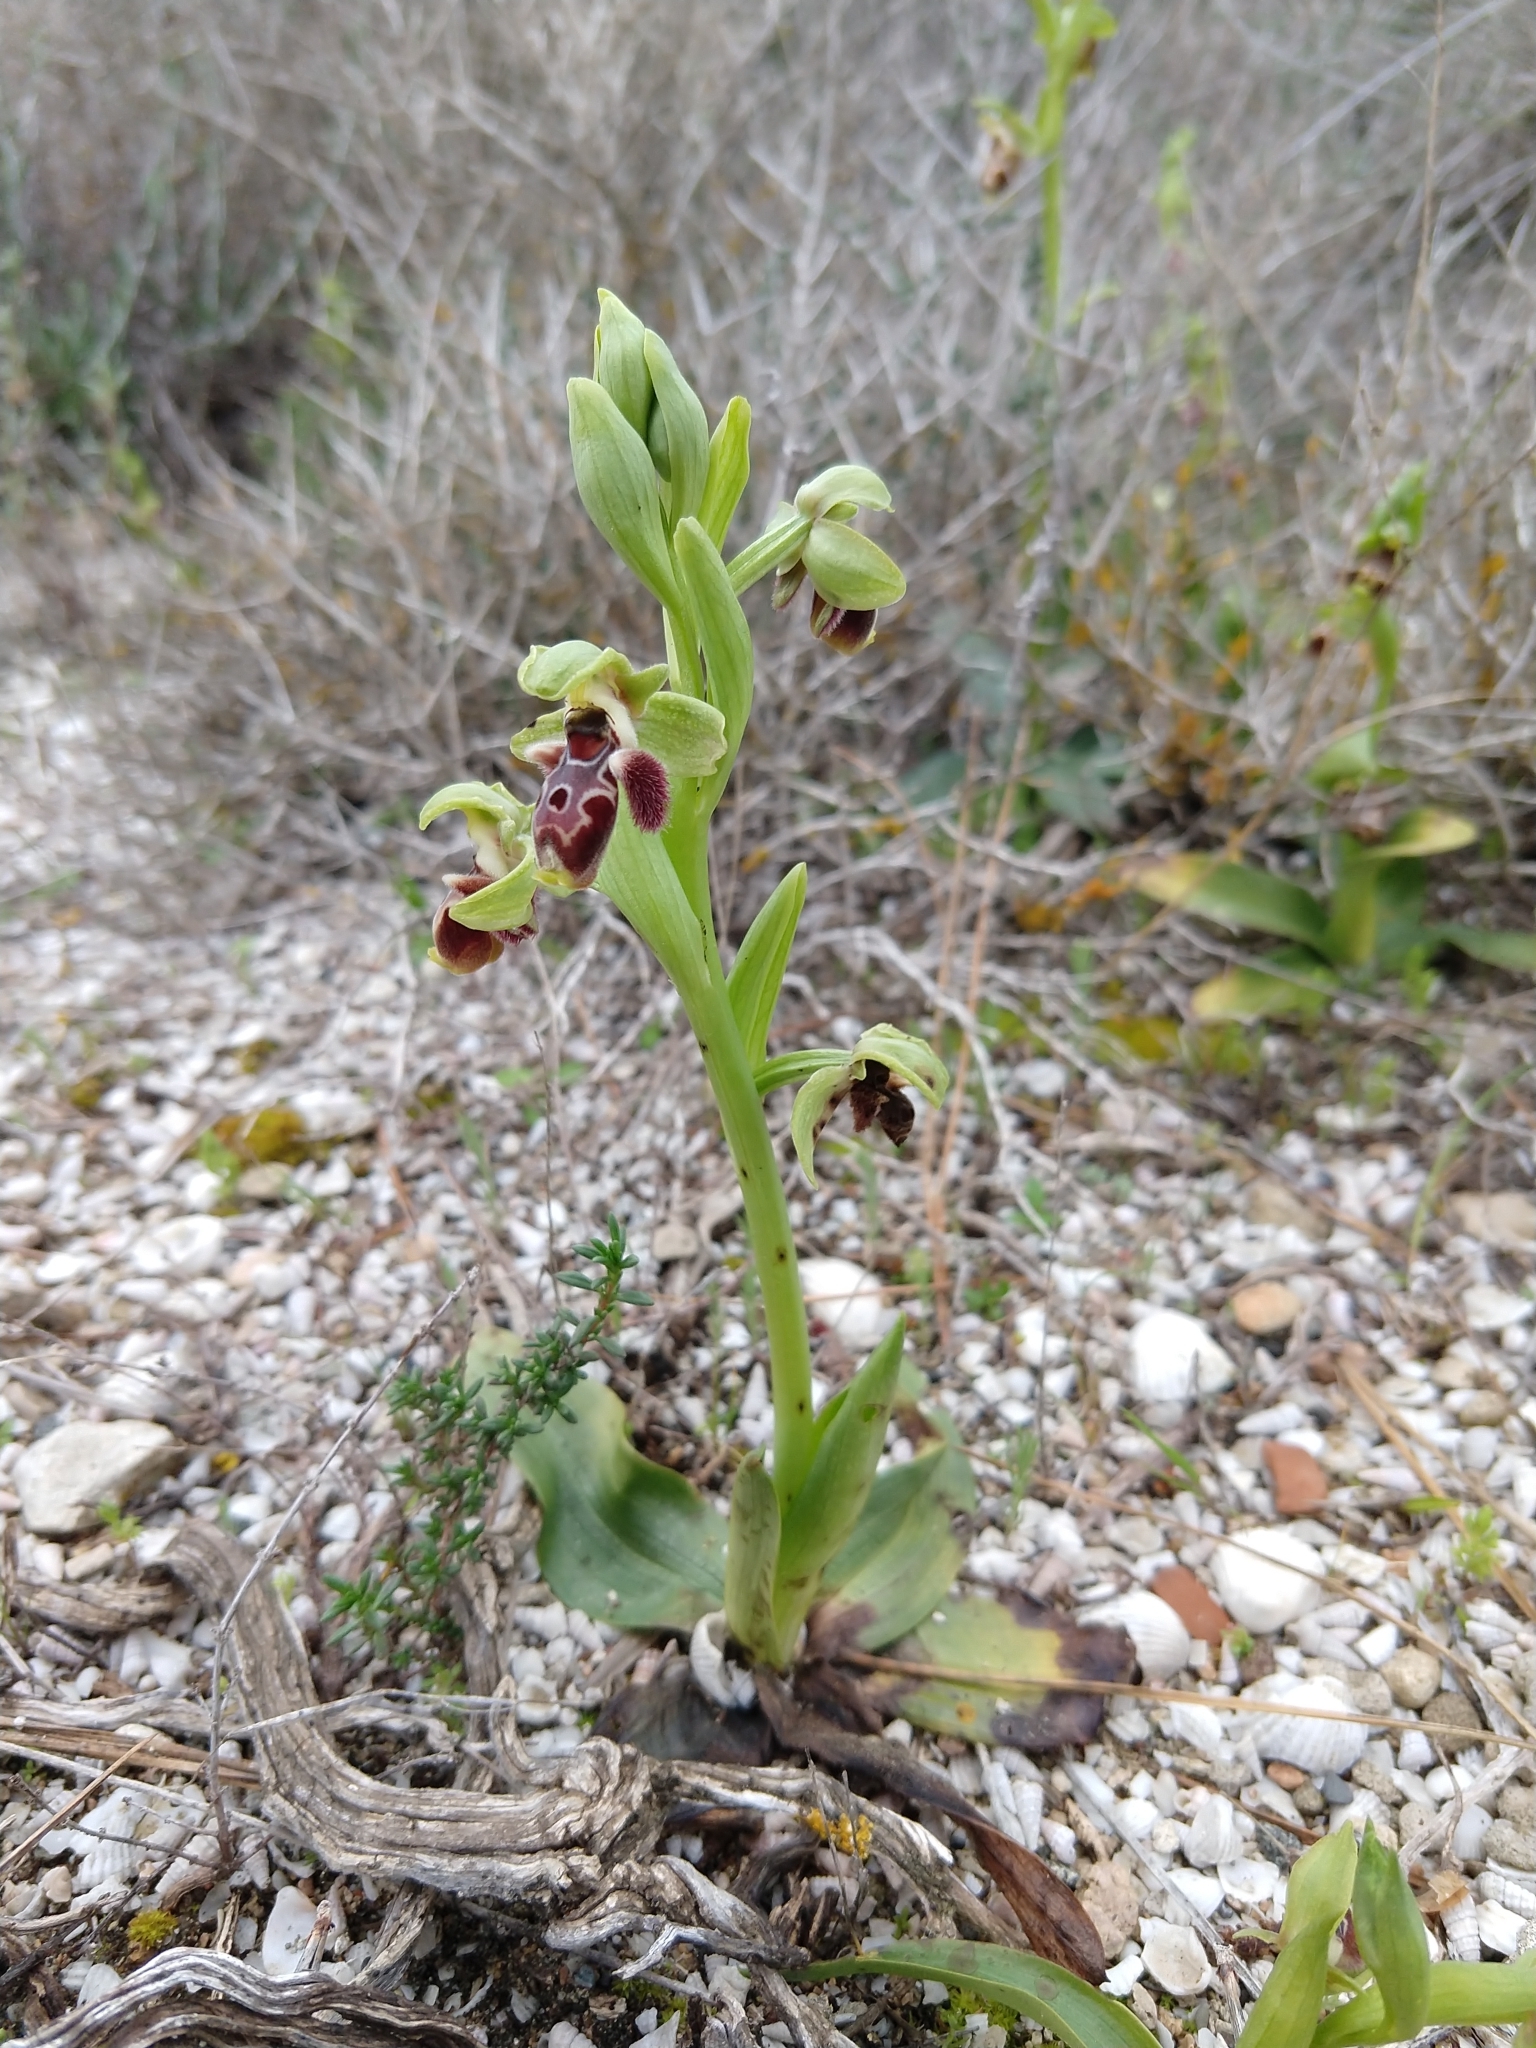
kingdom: Plantae
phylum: Tracheophyta
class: Liliopsida
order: Asparagales
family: Orchidaceae
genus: Ophrys
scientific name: Ophrys umbilicata
